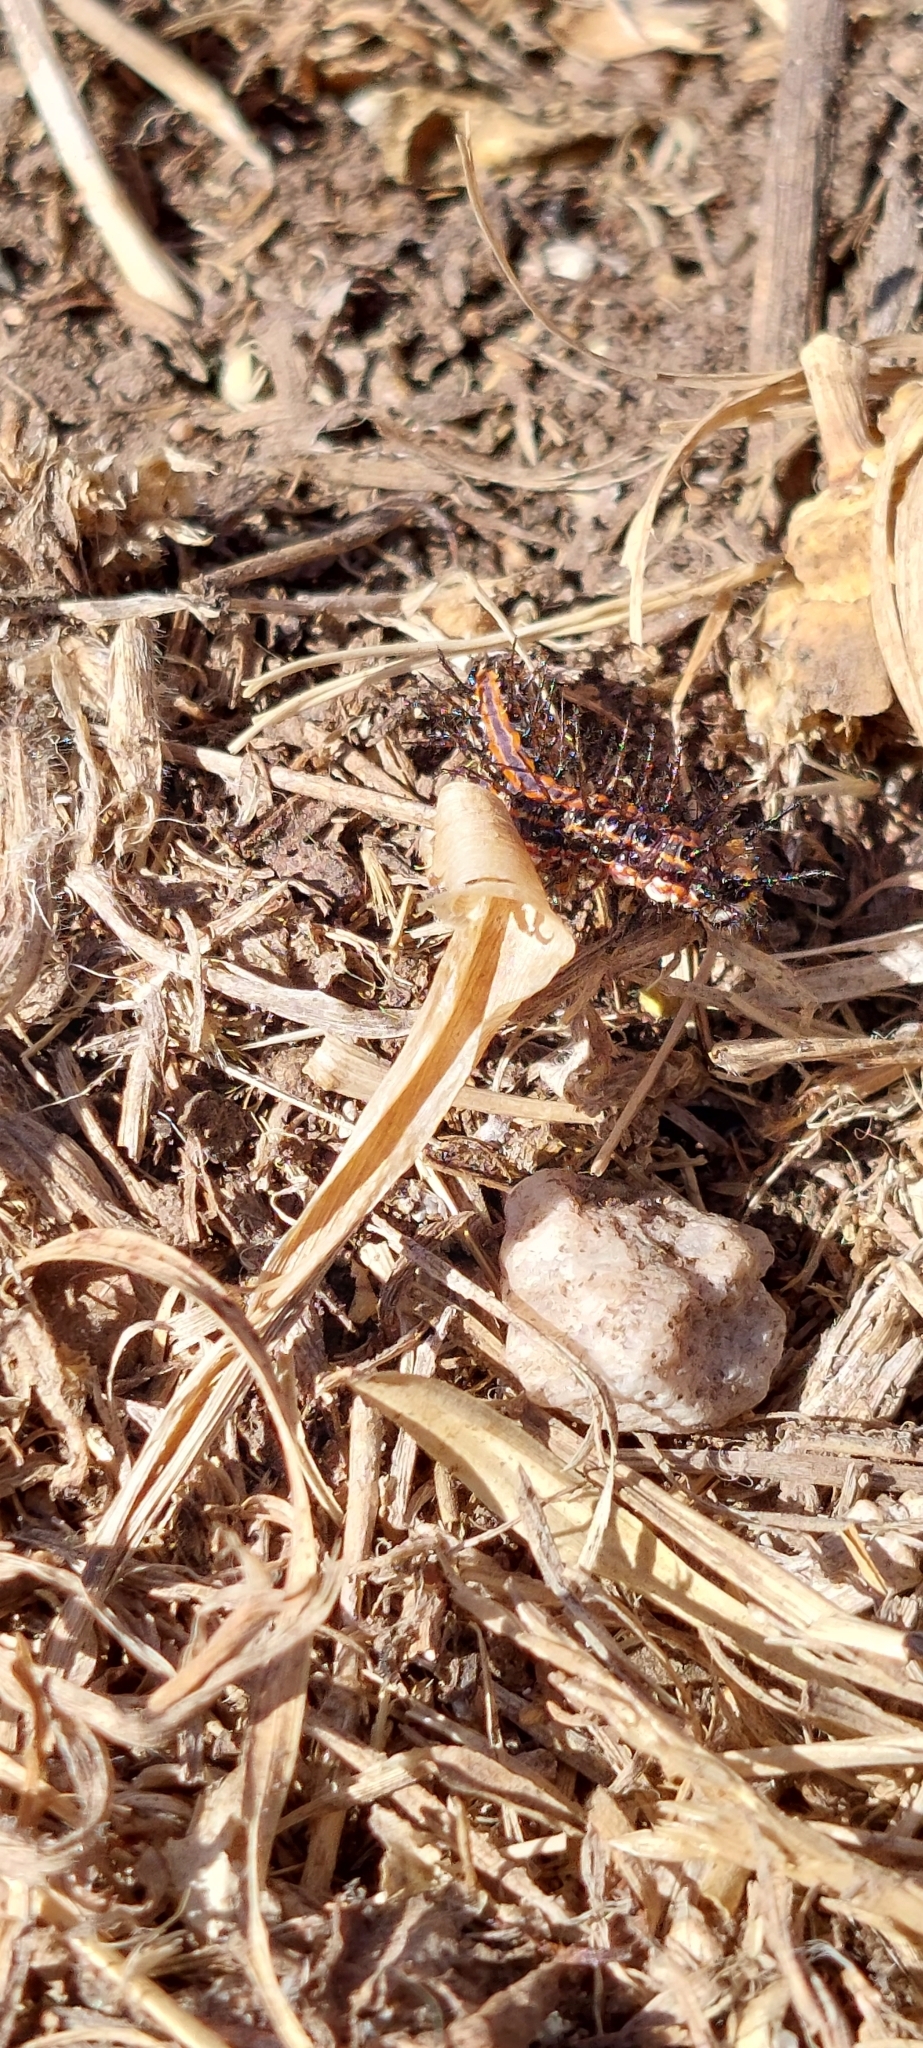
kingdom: Animalia
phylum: Arthropoda
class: Insecta
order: Lepidoptera
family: Nymphalidae
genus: Euptoieta
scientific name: Euptoieta hortensia
